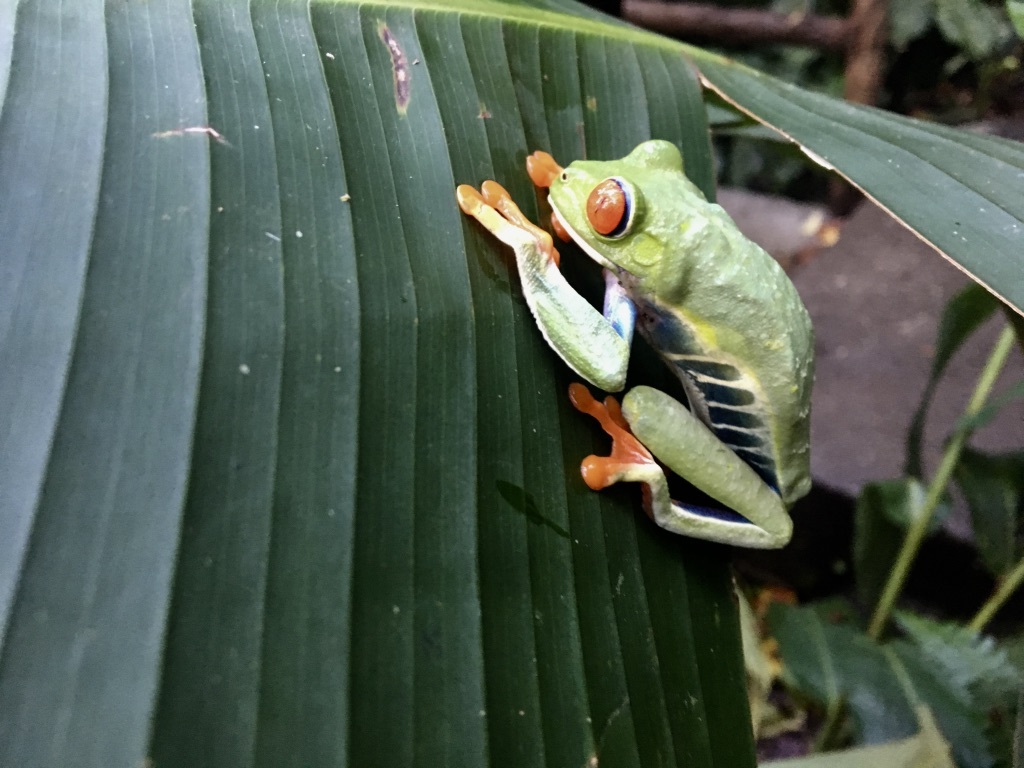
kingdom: Animalia
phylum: Chordata
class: Amphibia
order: Anura
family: Phyllomedusidae
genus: Agalychnis
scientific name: Agalychnis callidryas
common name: Red-eyed treefrog
